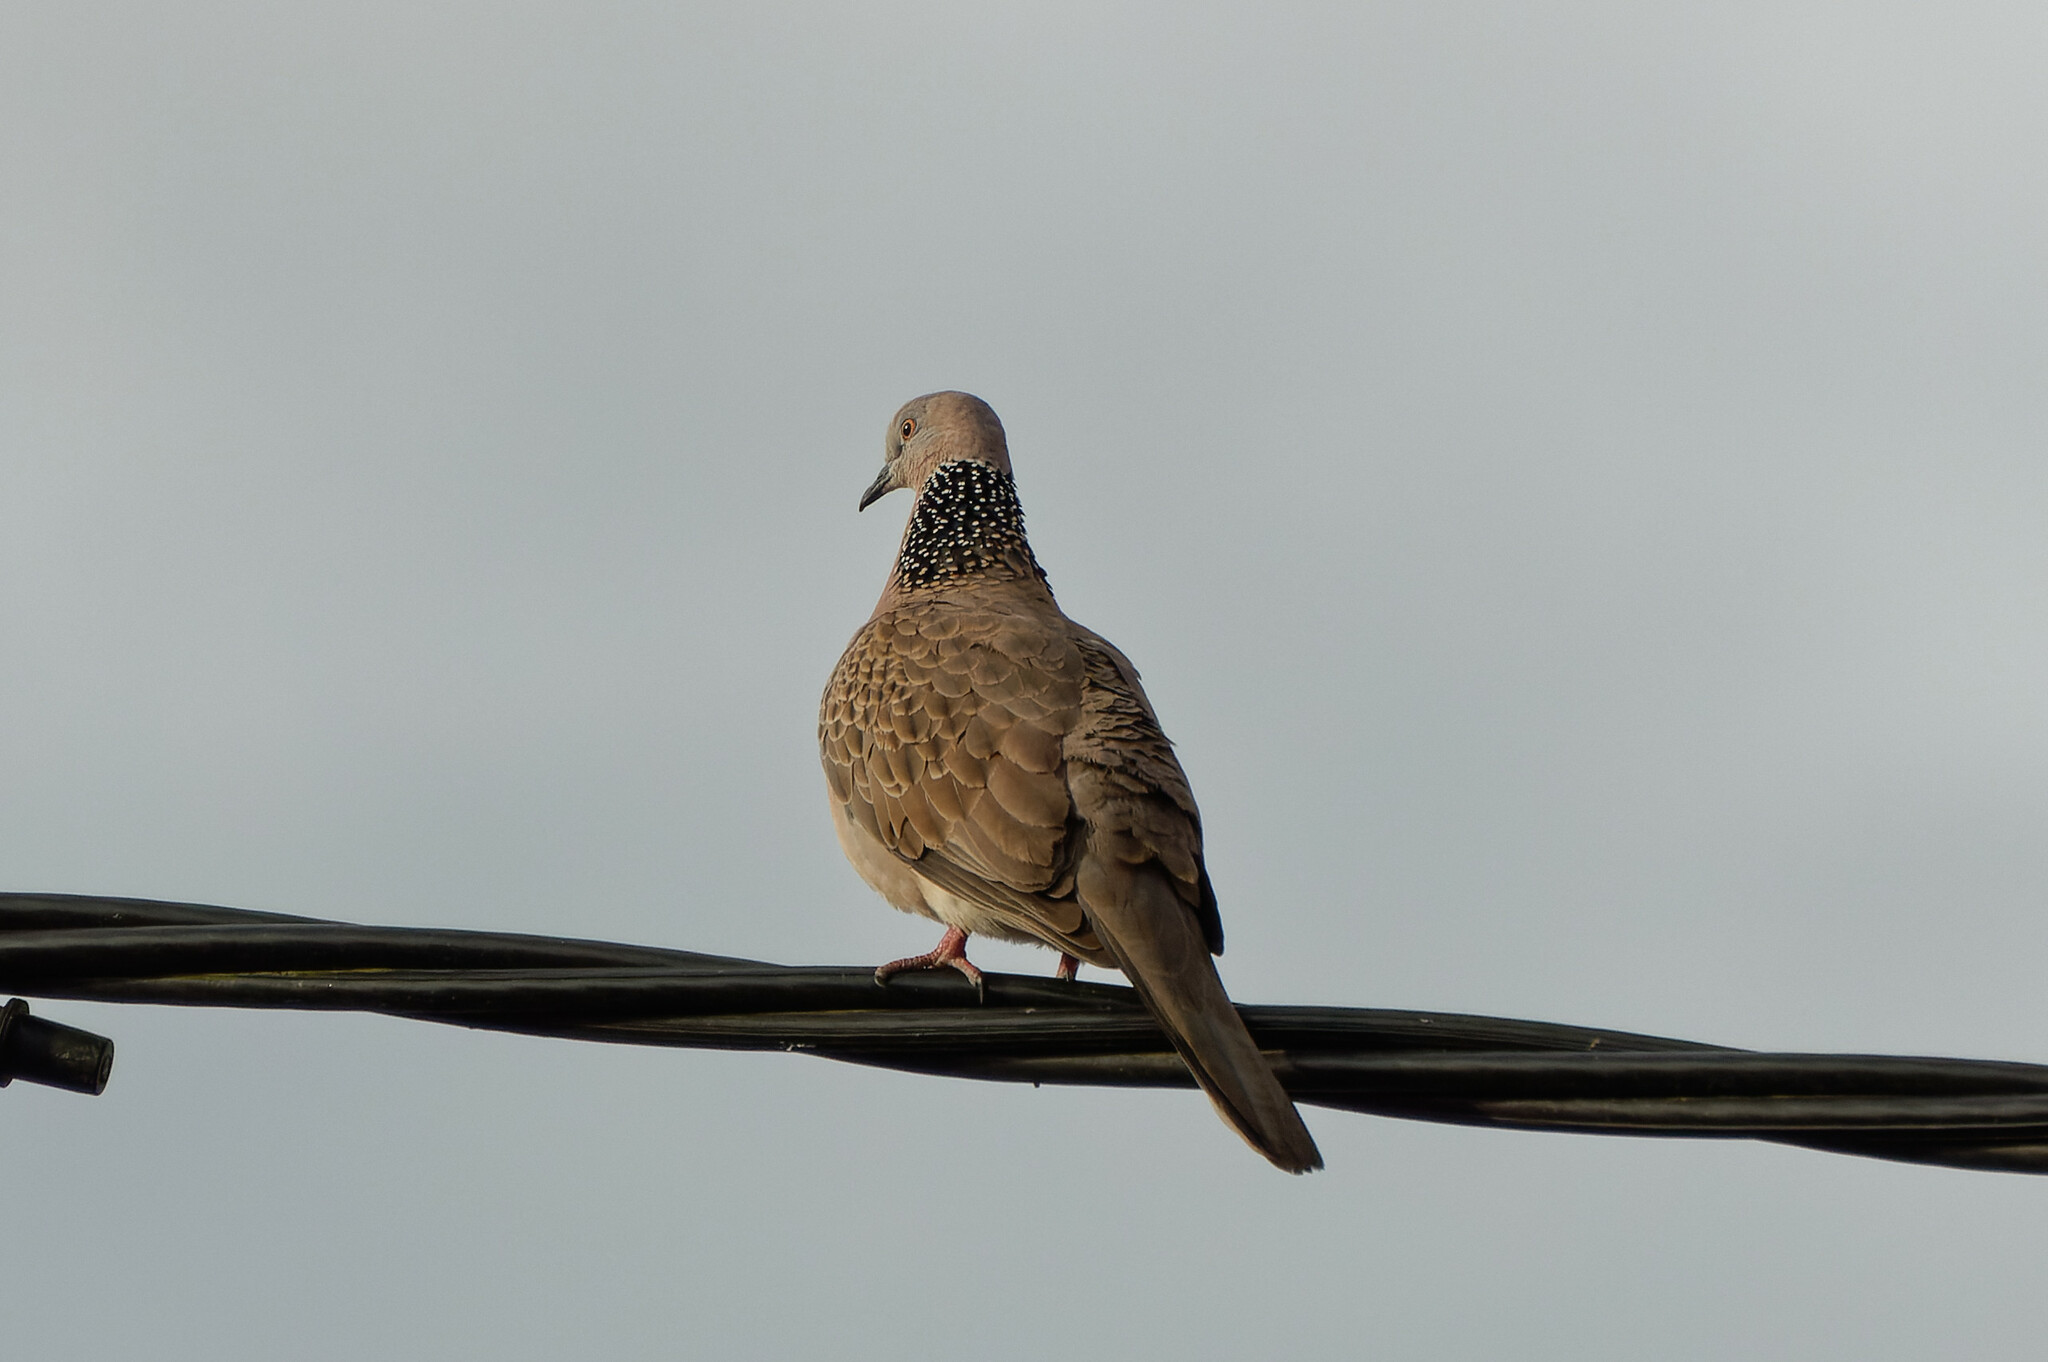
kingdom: Animalia
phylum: Chordata
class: Aves
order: Columbiformes
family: Columbidae
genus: Spilopelia
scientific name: Spilopelia chinensis
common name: Spotted dove
